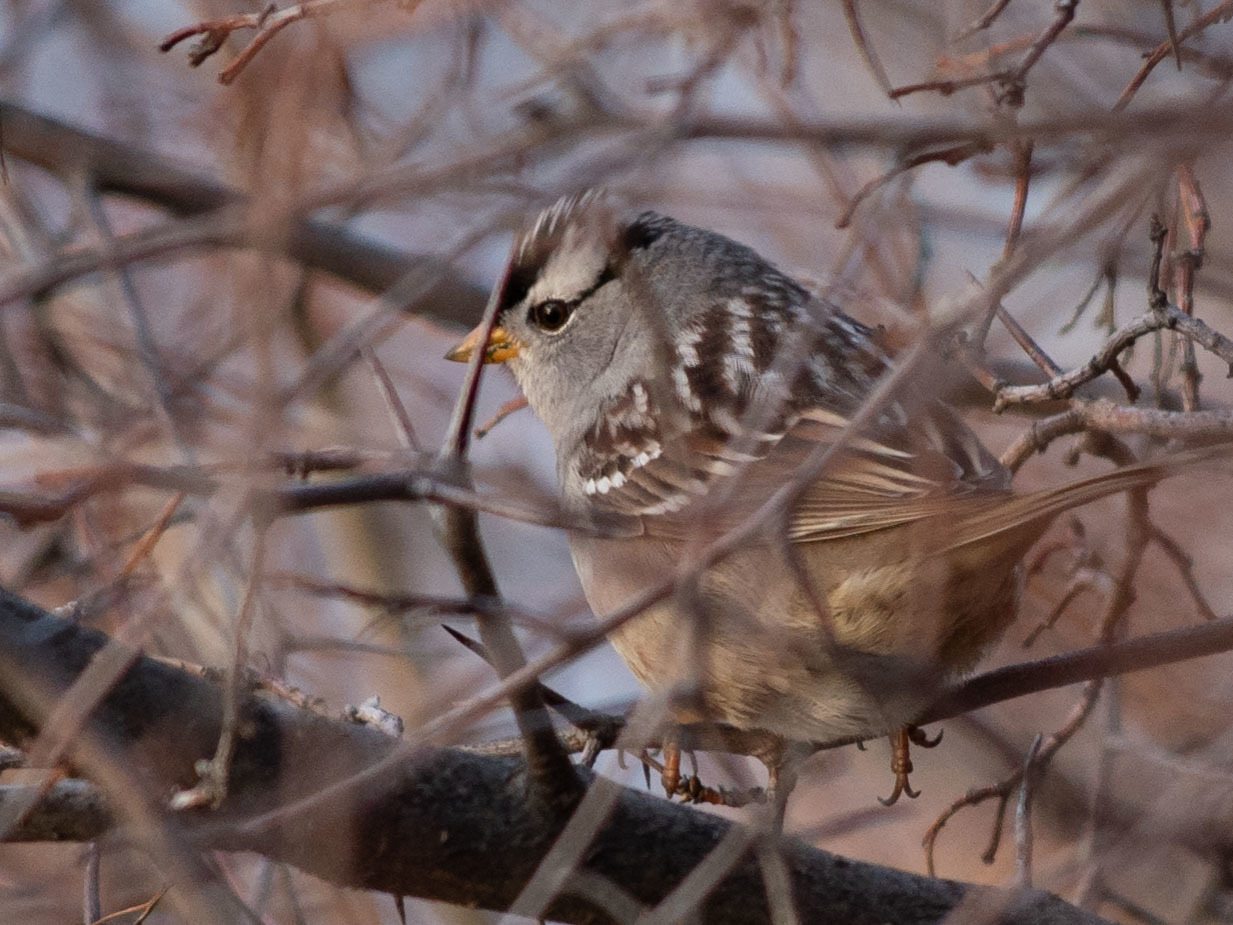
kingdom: Animalia
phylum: Chordata
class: Aves
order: Passeriformes
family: Passerellidae
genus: Zonotrichia
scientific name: Zonotrichia leucophrys
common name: White-crowned sparrow
